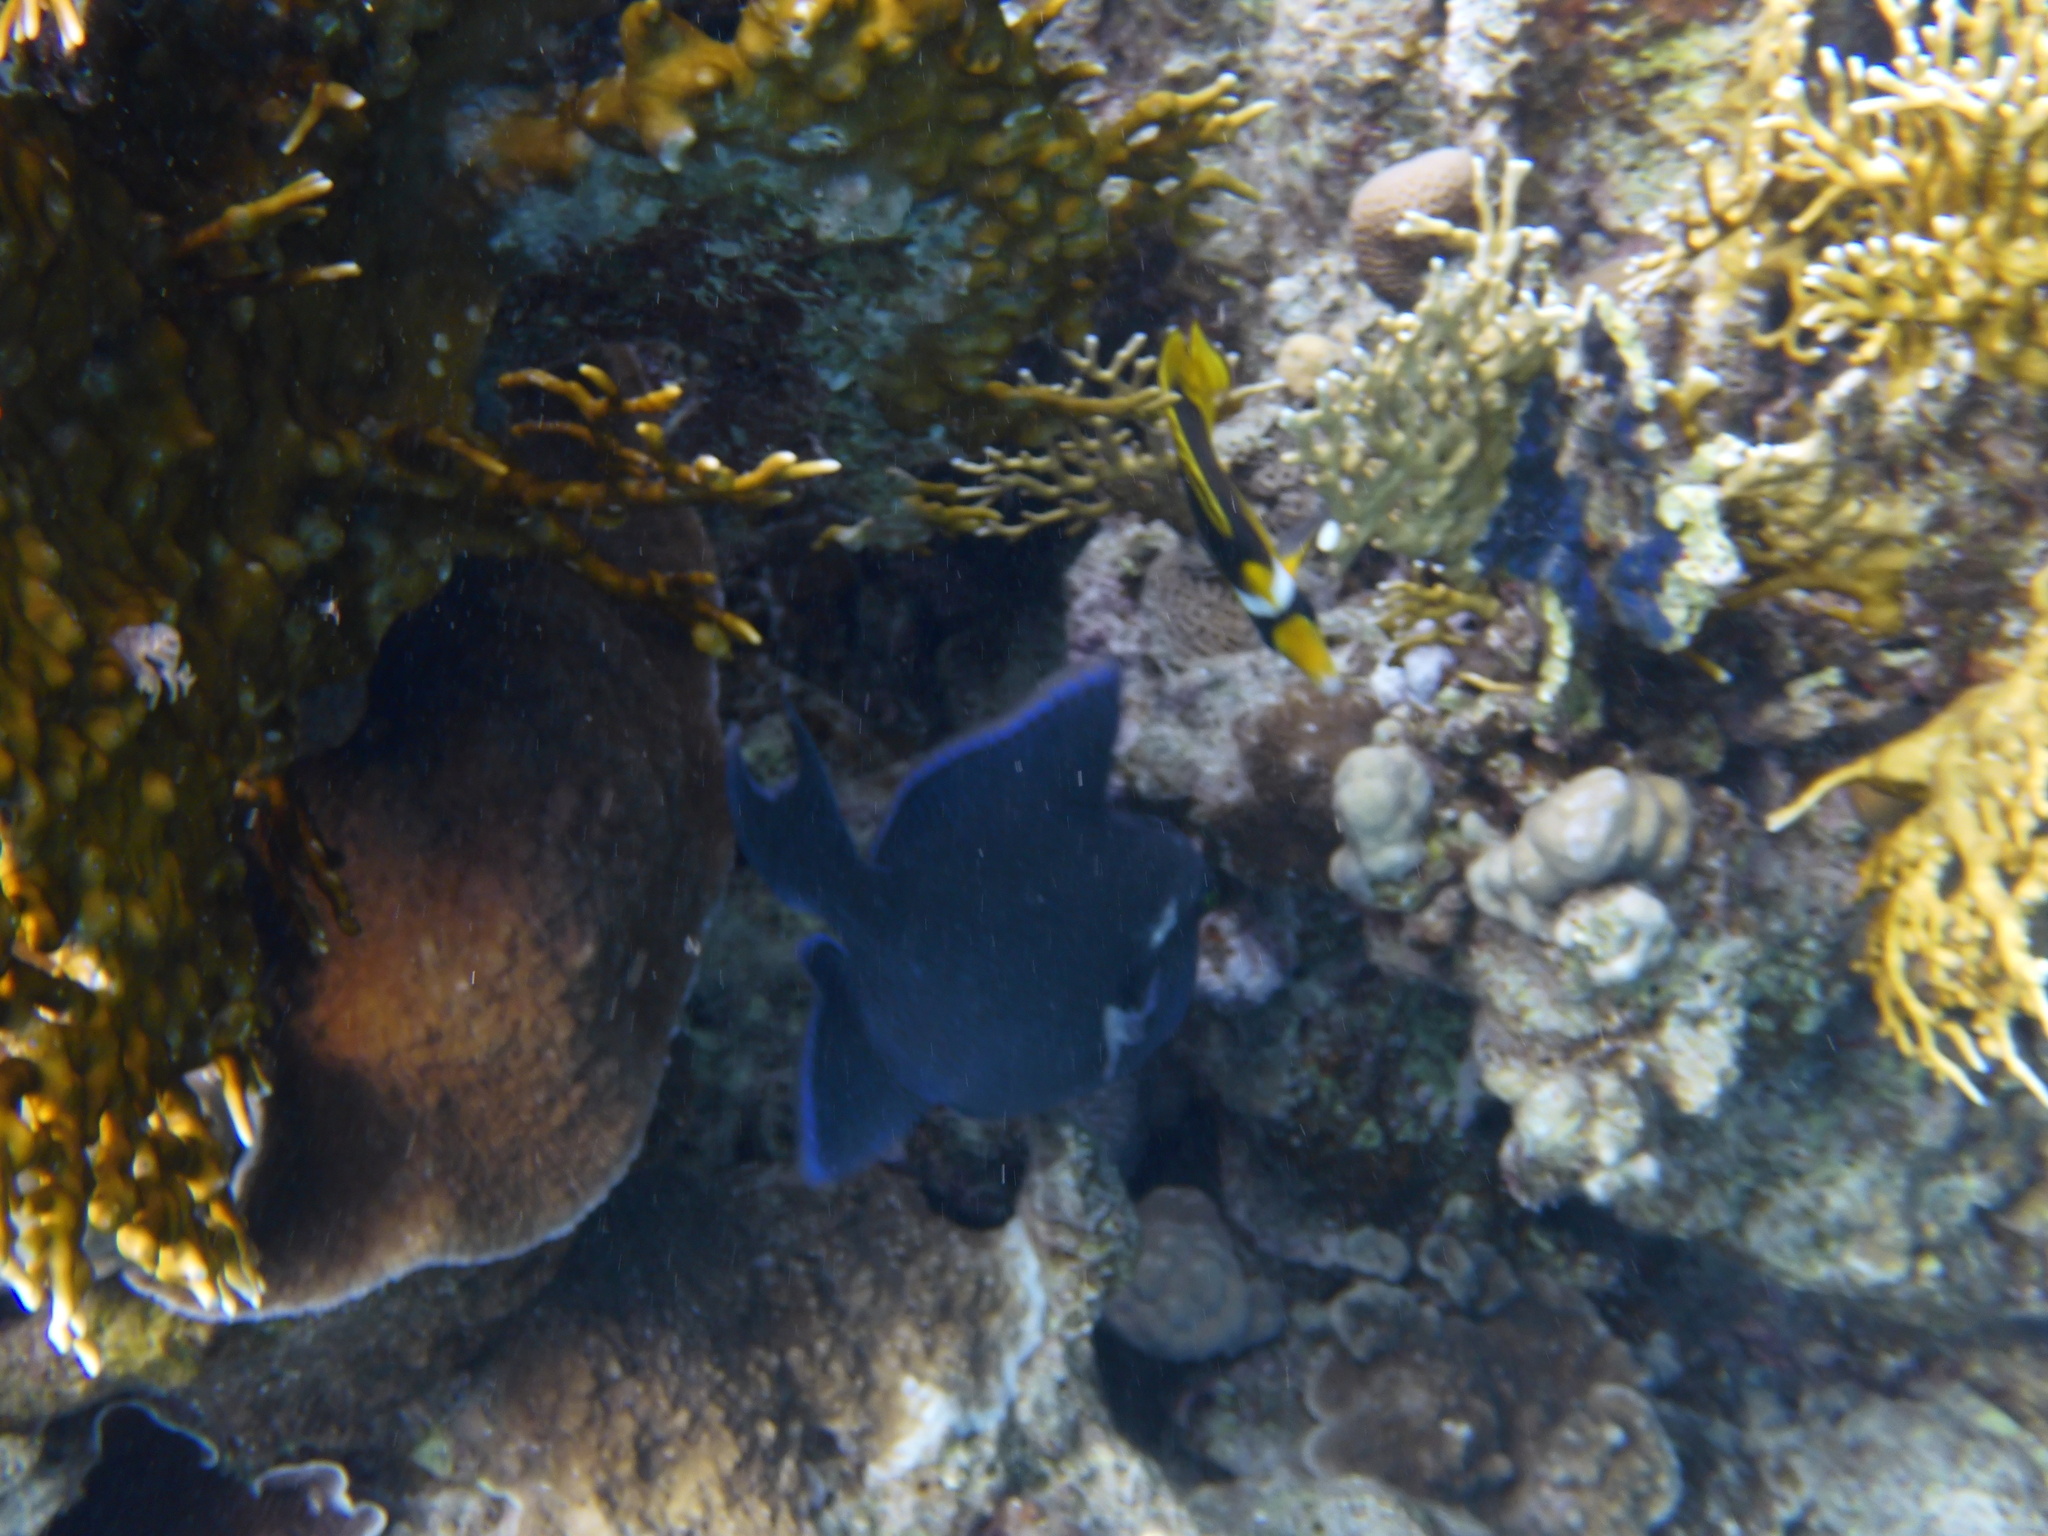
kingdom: Animalia
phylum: Chordata
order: Tetraodontiformes
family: Balistidae
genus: Odonus
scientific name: Odonus niger
